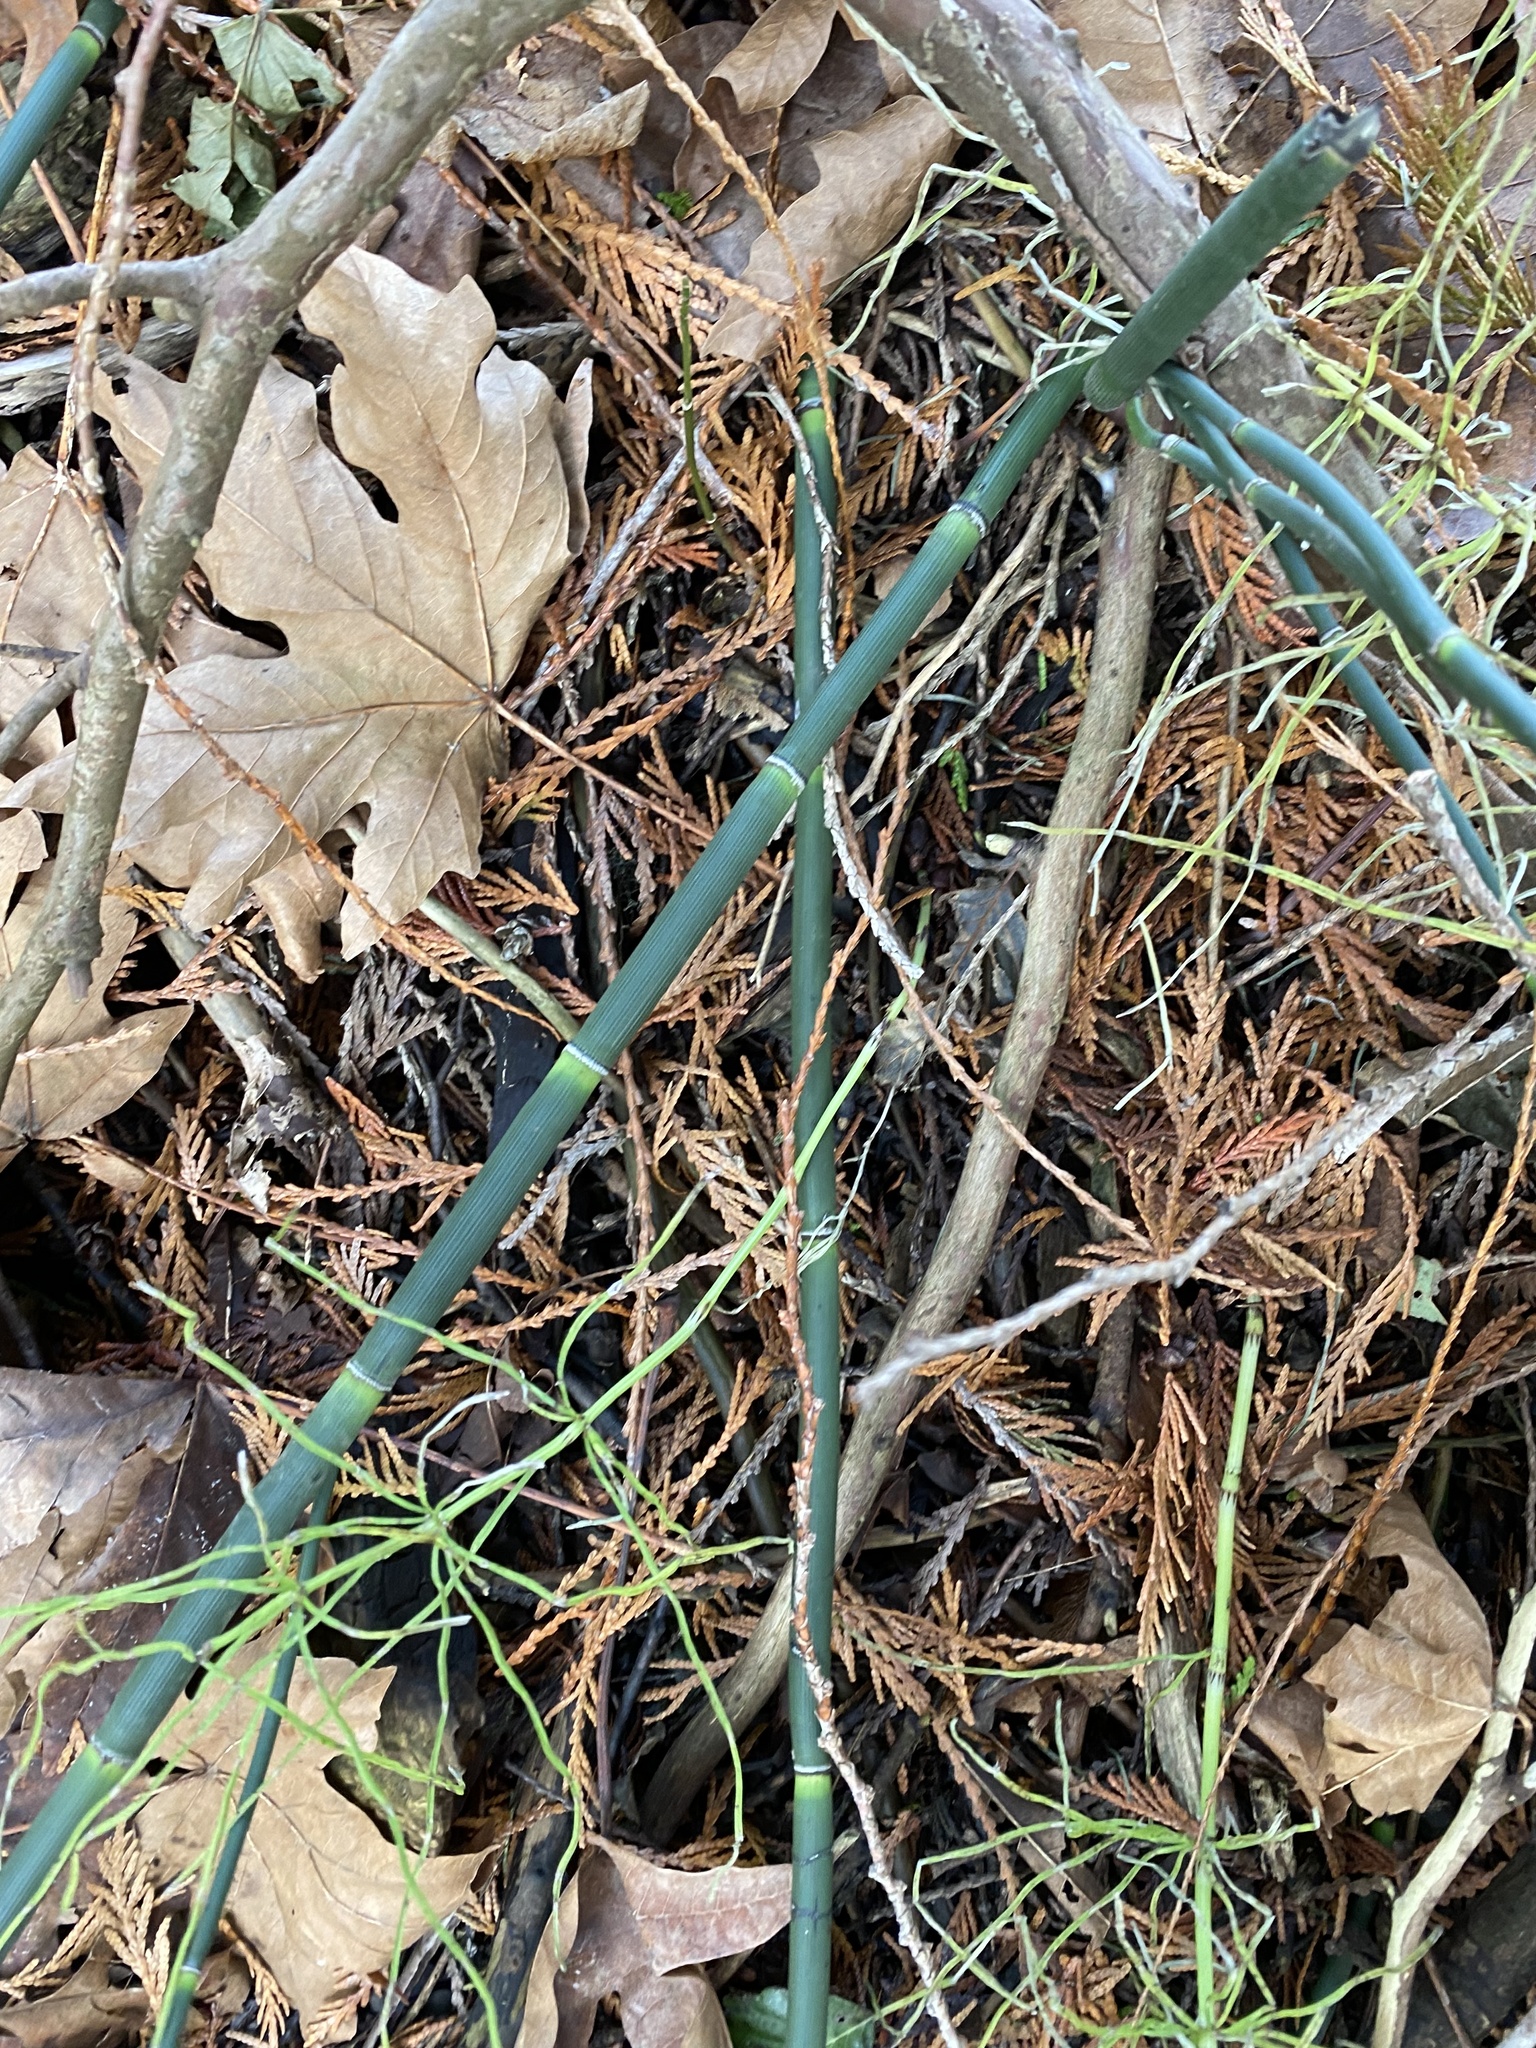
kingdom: Plantae
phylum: Tracheophyta
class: Polypodiopsida
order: Equisetales
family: Equisetaceae
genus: Equisetum
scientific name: Equisetum hyemale
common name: Rough horsetail
